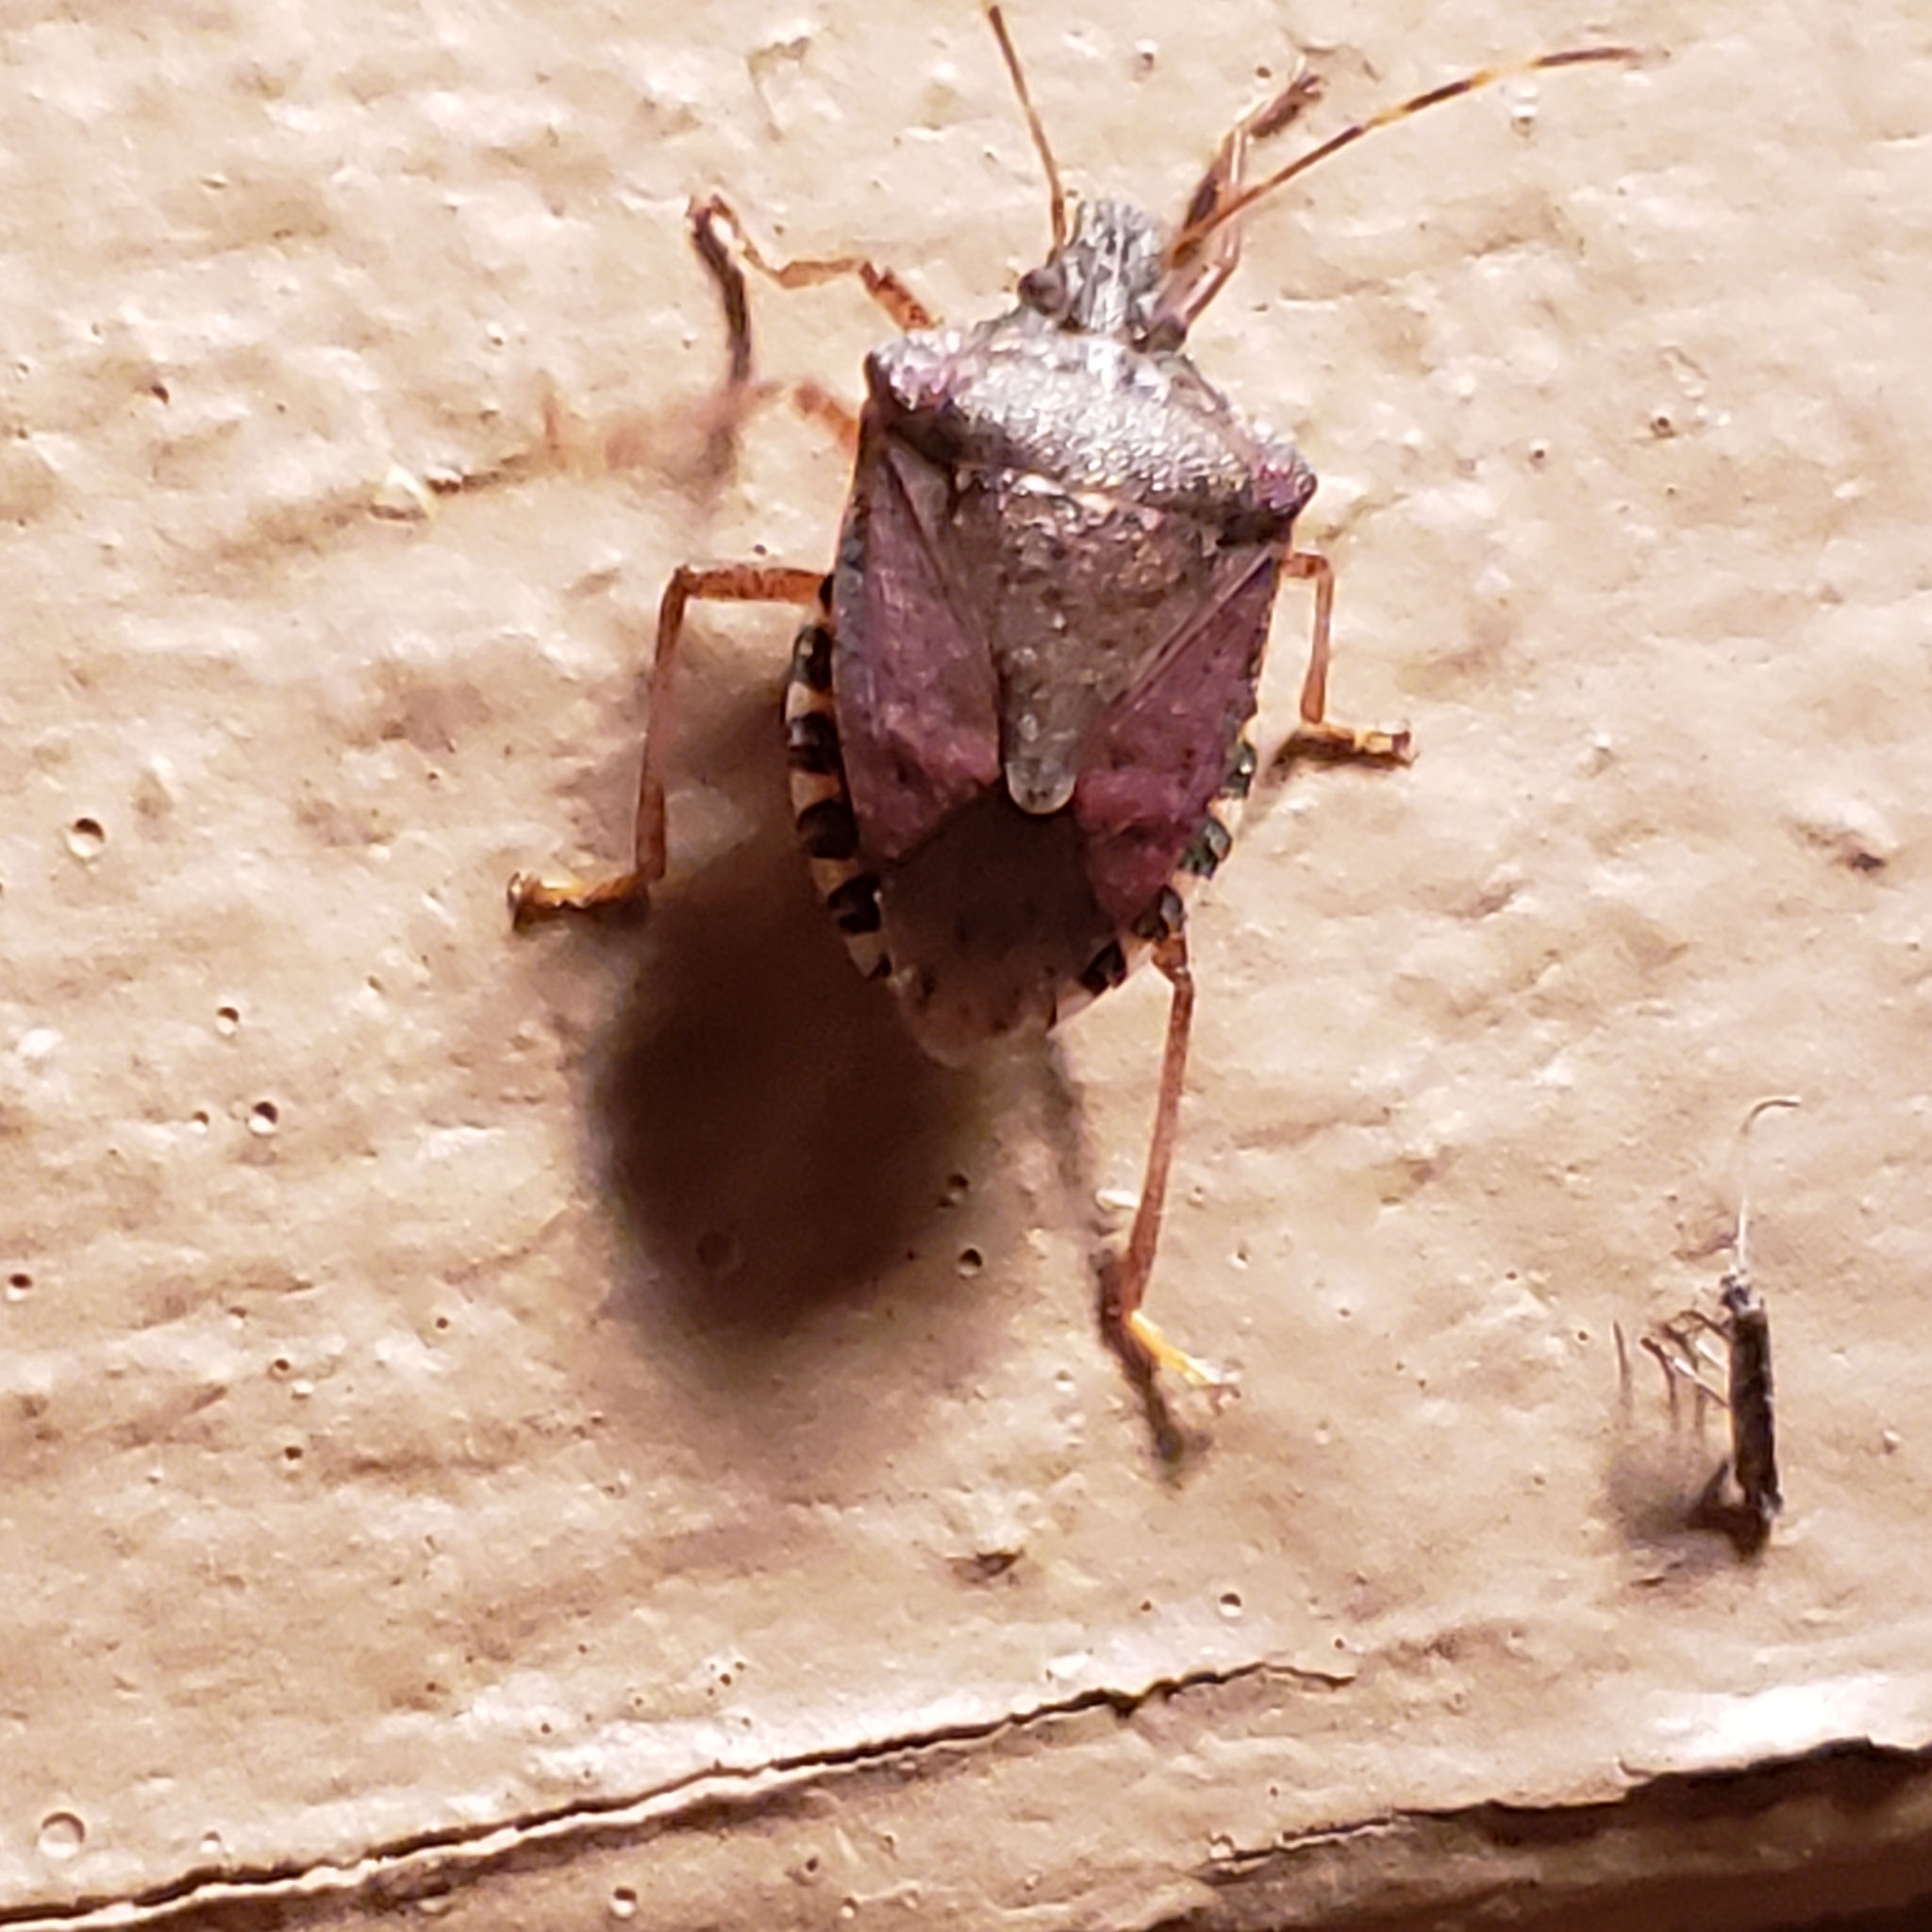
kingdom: Animalia
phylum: Arthropoda
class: Insecta
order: Hemiptera
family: Pentatomidae
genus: Halyomorpha
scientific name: Halyomorpha halys
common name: Brown marmorated stink bug
